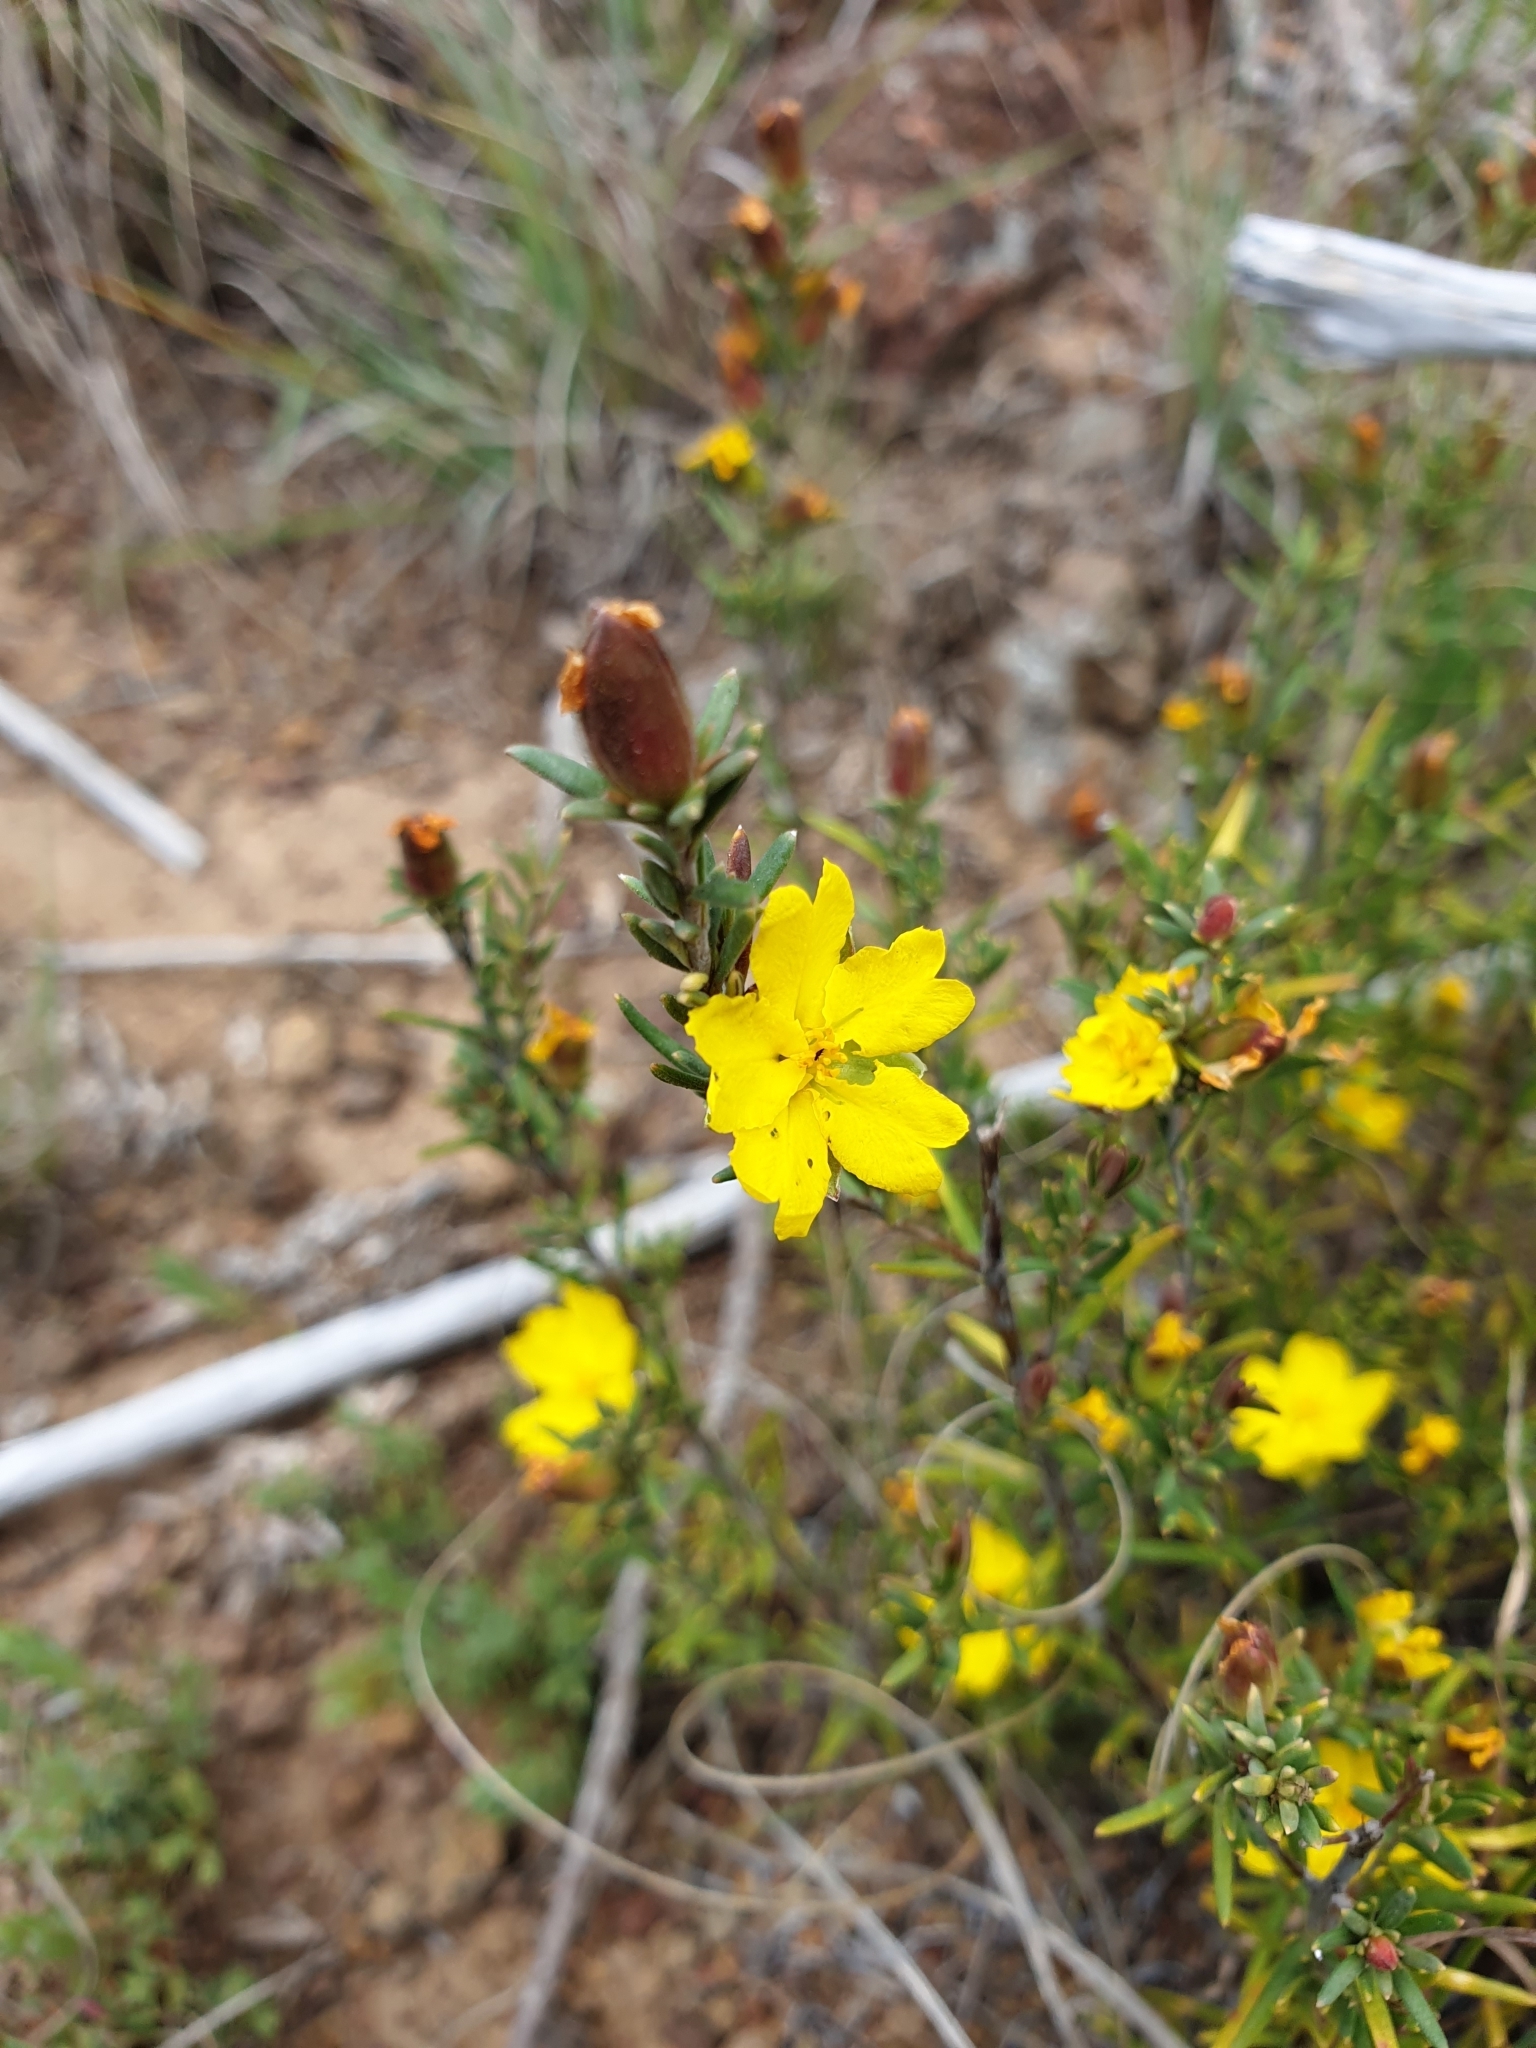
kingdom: Plantae
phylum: Tracheophyta
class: Magnoliopsida
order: Dilleniales
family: Dilleniaceae
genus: Hibbertia
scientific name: Hibbertia riparia
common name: Erect guinea-flower
